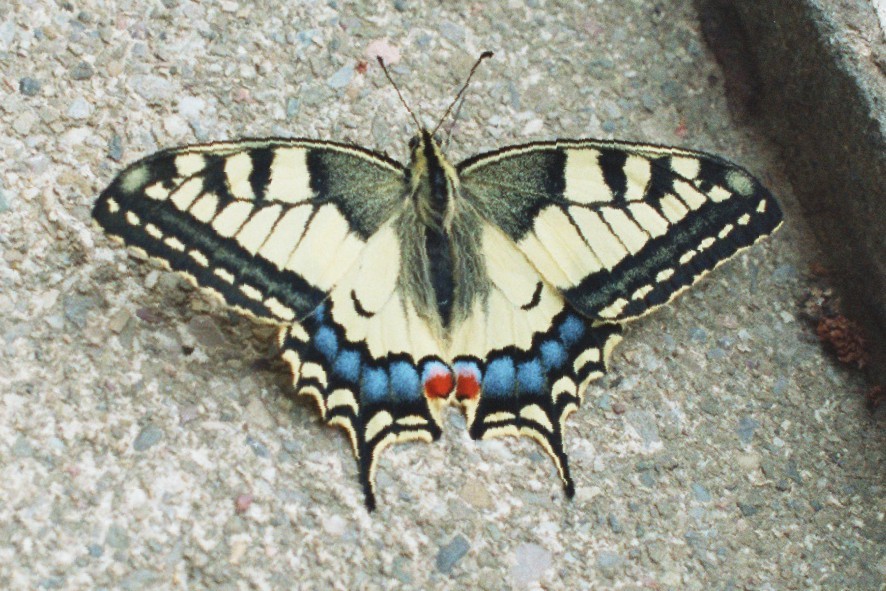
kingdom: Animalia
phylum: Arthropoda
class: Insecta
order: Lepidoptera
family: Papilionidae
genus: Papilio
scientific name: Papilio machaon
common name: Swallowtail
